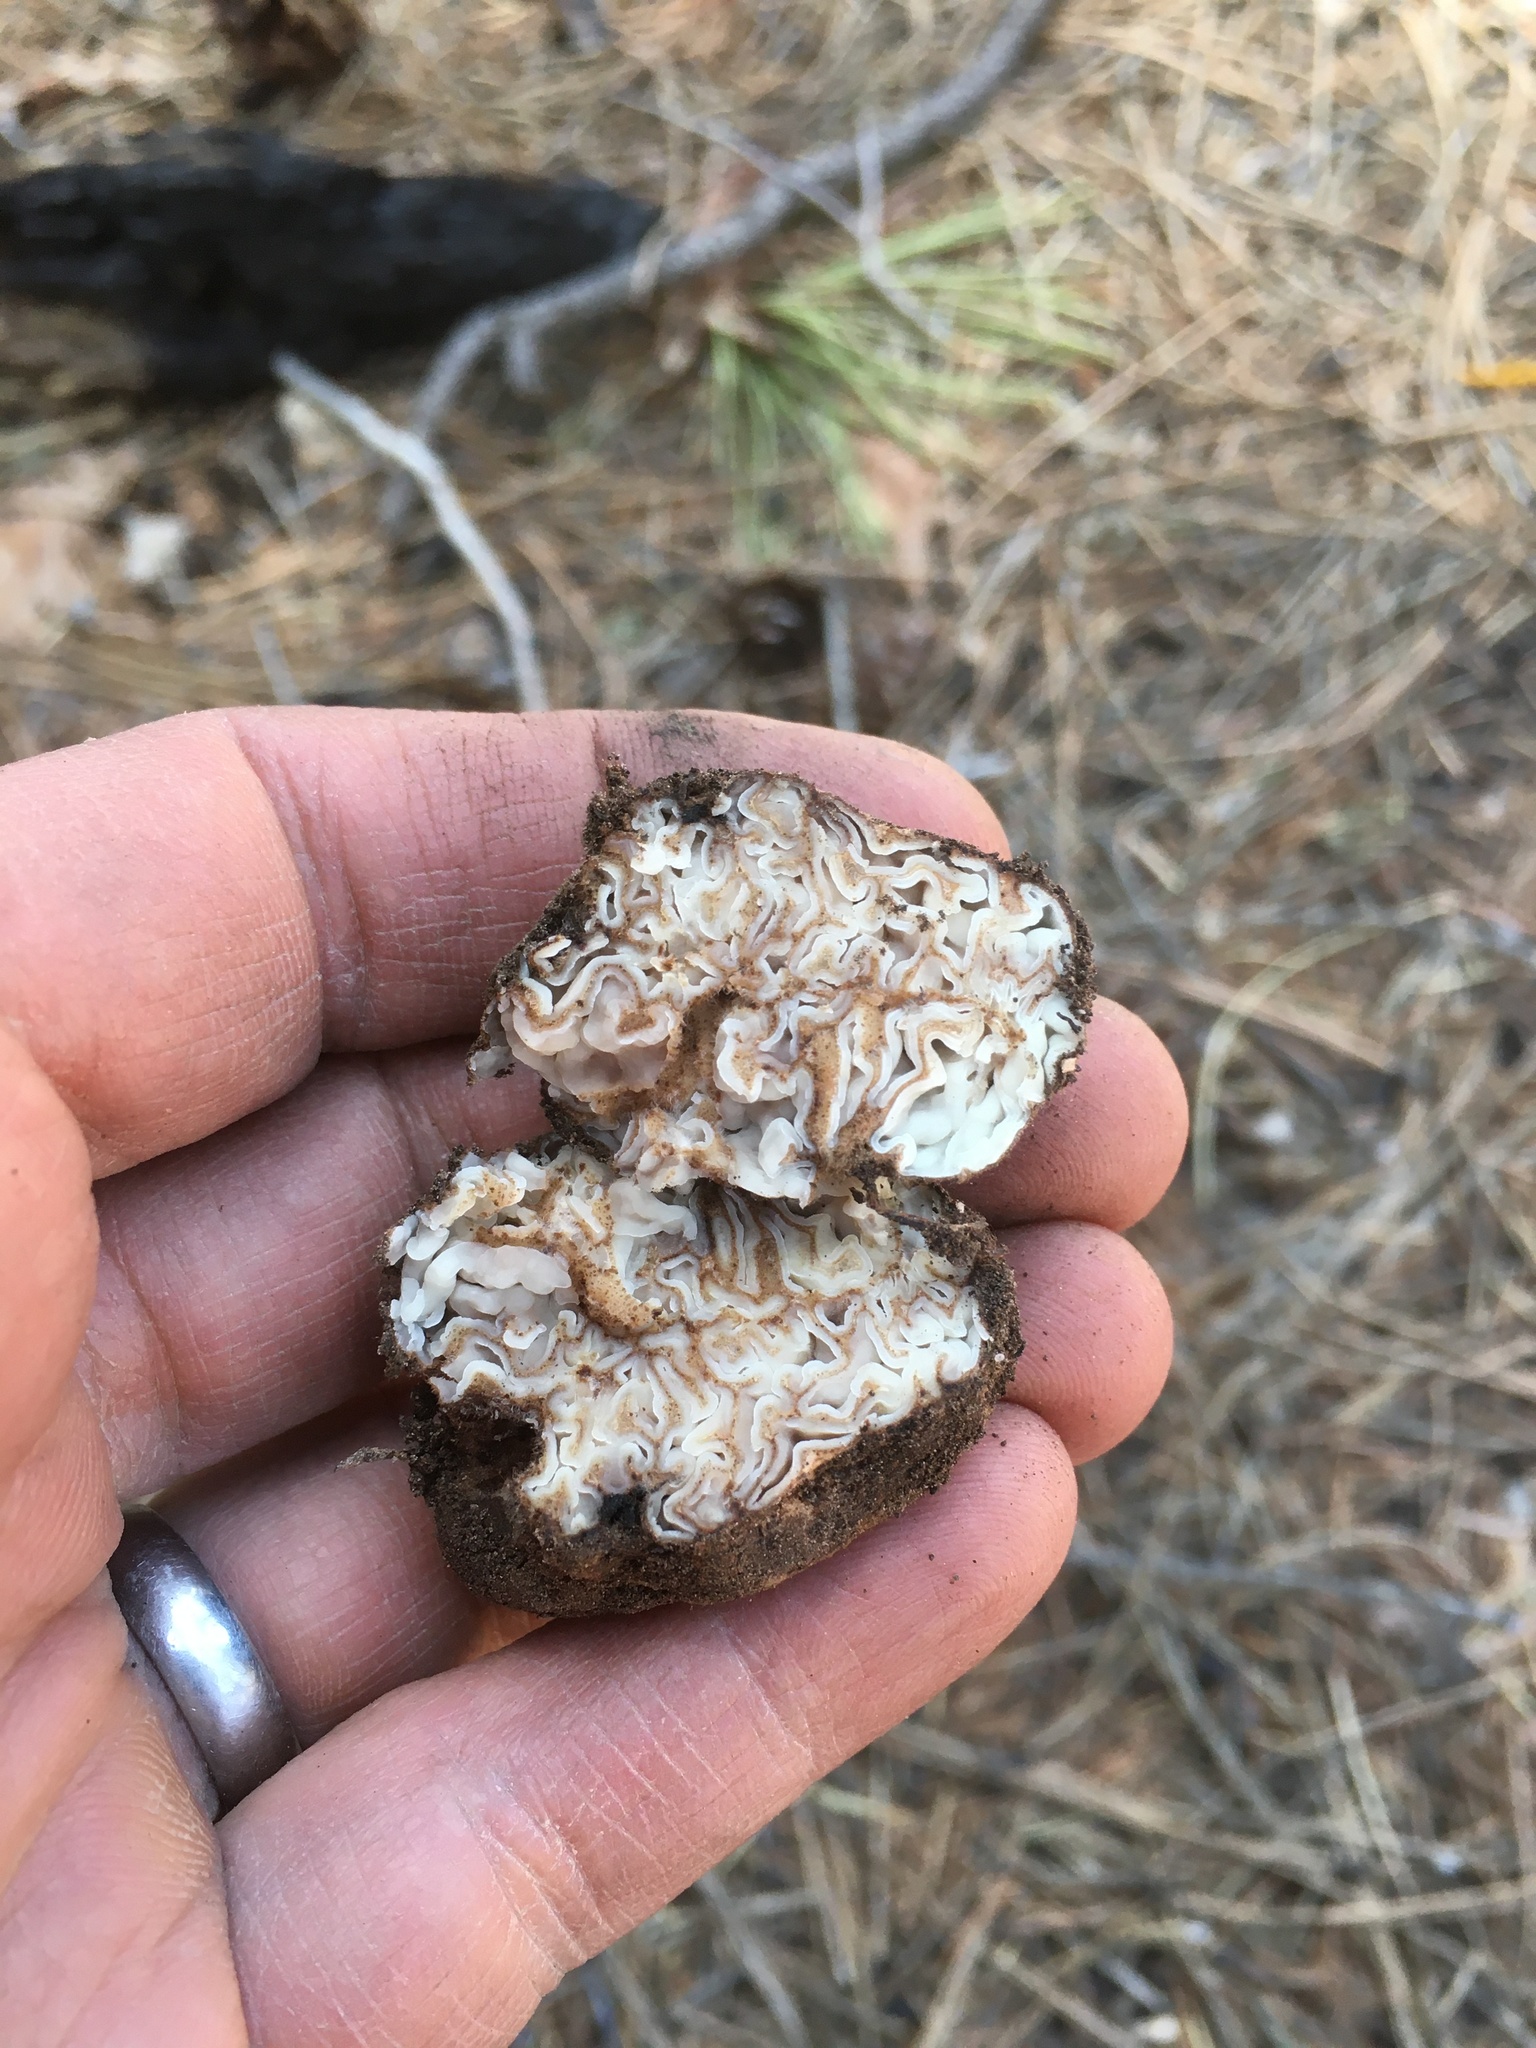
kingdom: Fungi
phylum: Ascomycota
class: Pezizomycetes
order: Pezizales
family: Pyronemataceae
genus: Geopora
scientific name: Geopora cooperi
